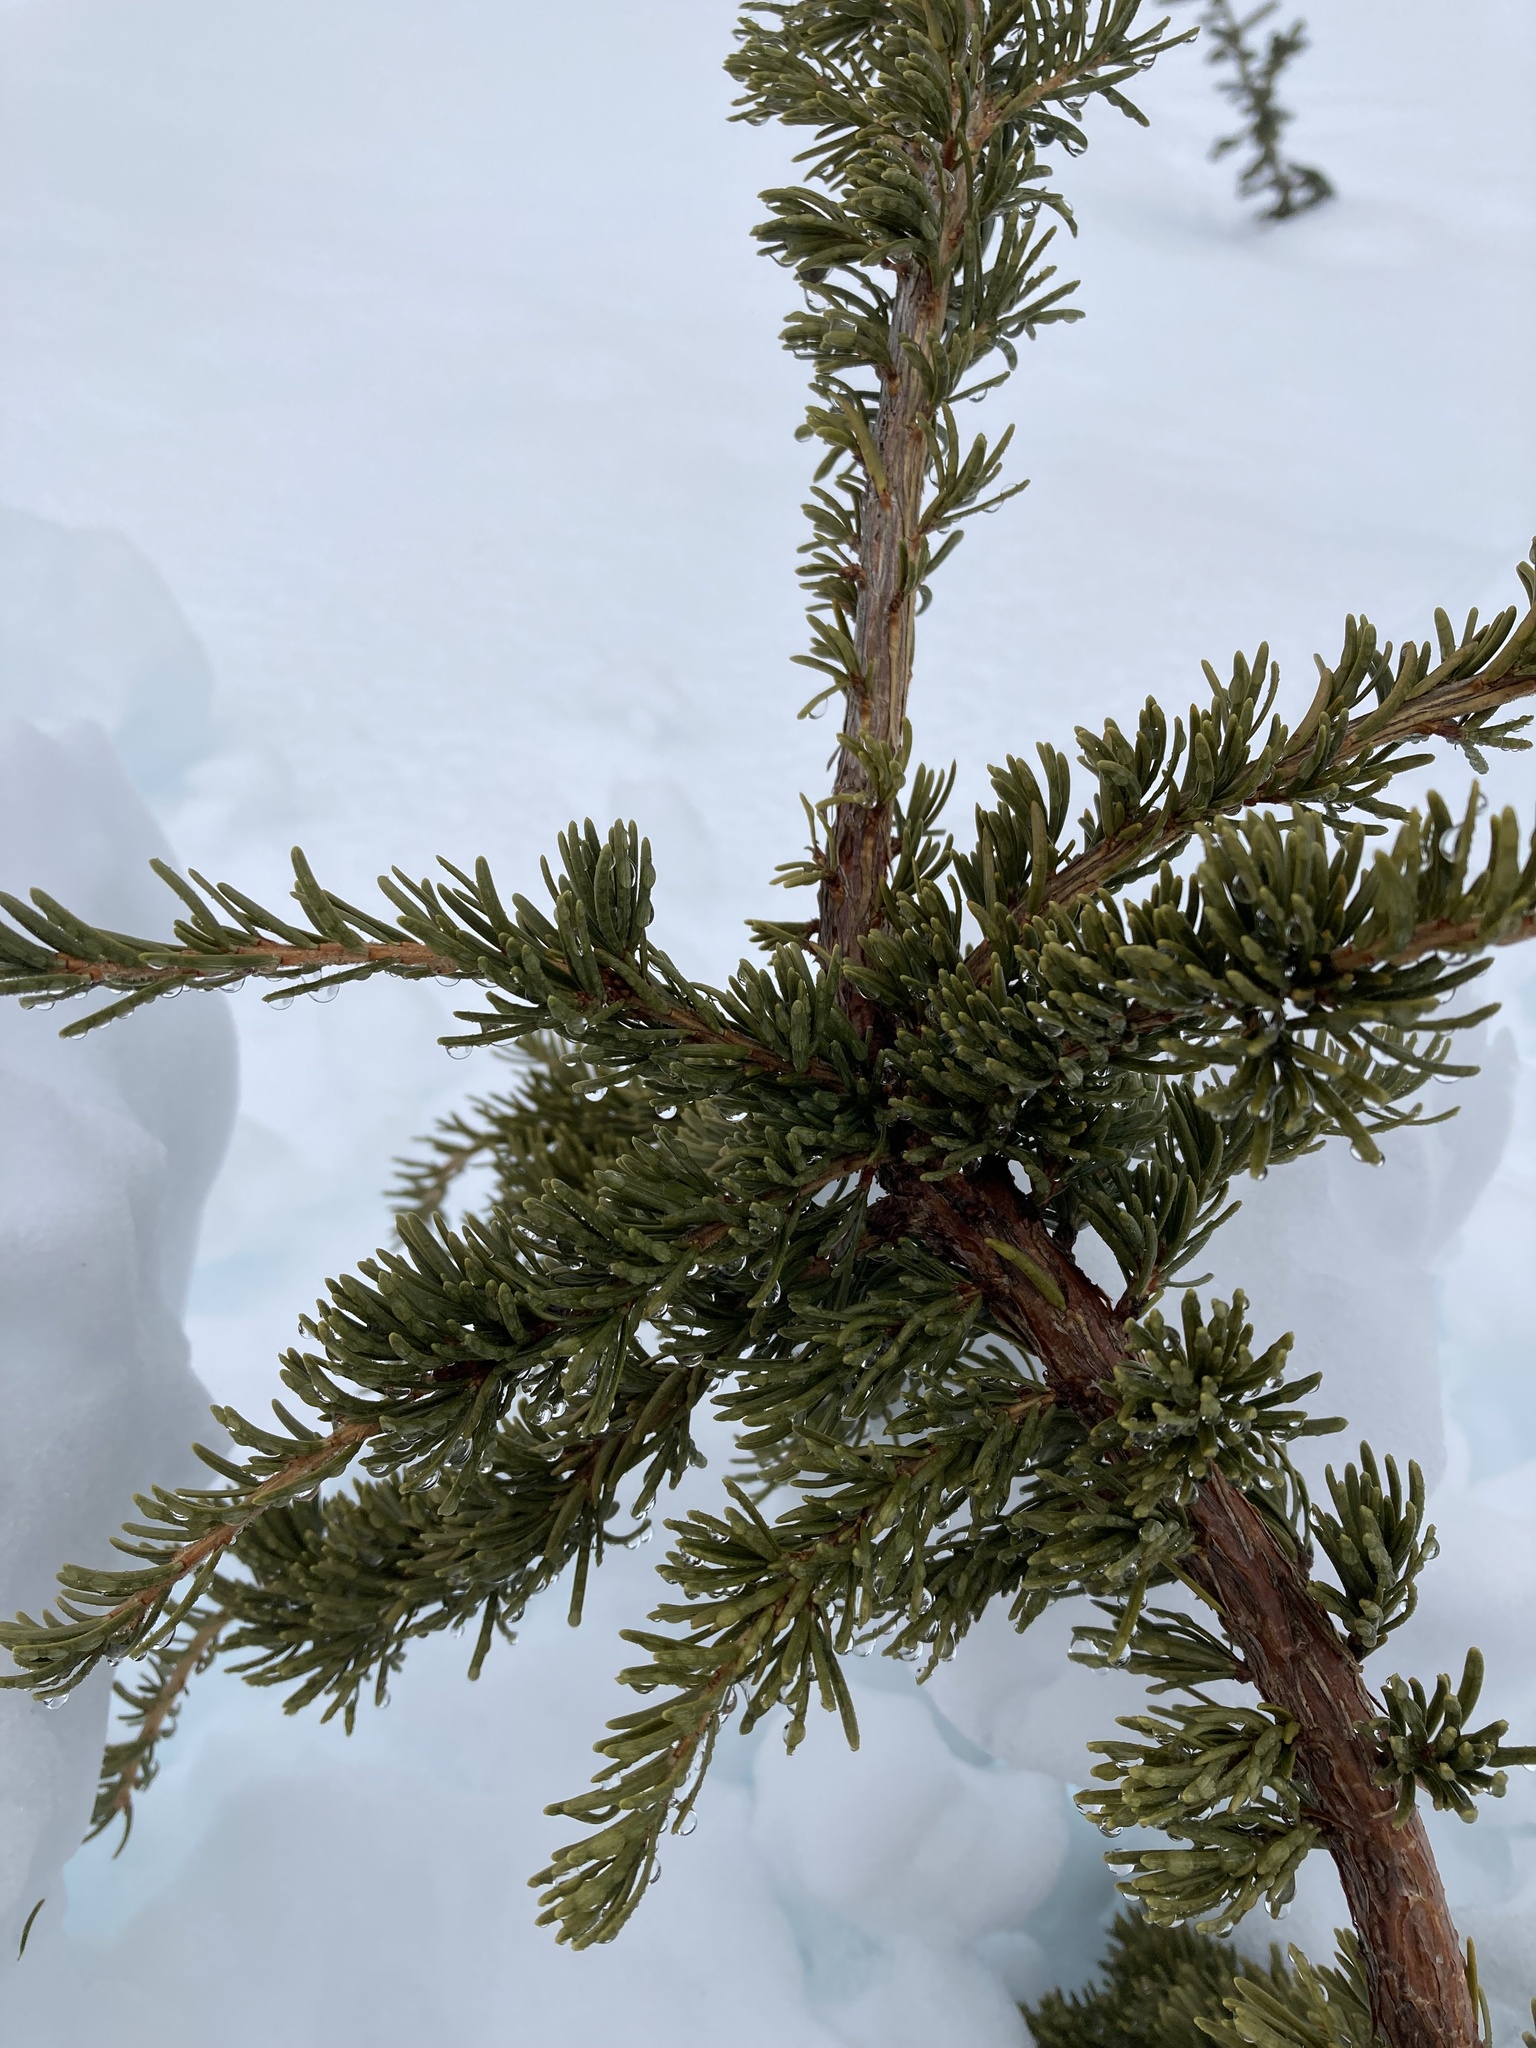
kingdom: Plantae
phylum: Tracheophyta
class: Pinopsida
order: Pinales
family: Pinaceae
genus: Tsuga
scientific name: Tsuga mertensiana
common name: Mountain hemlock
